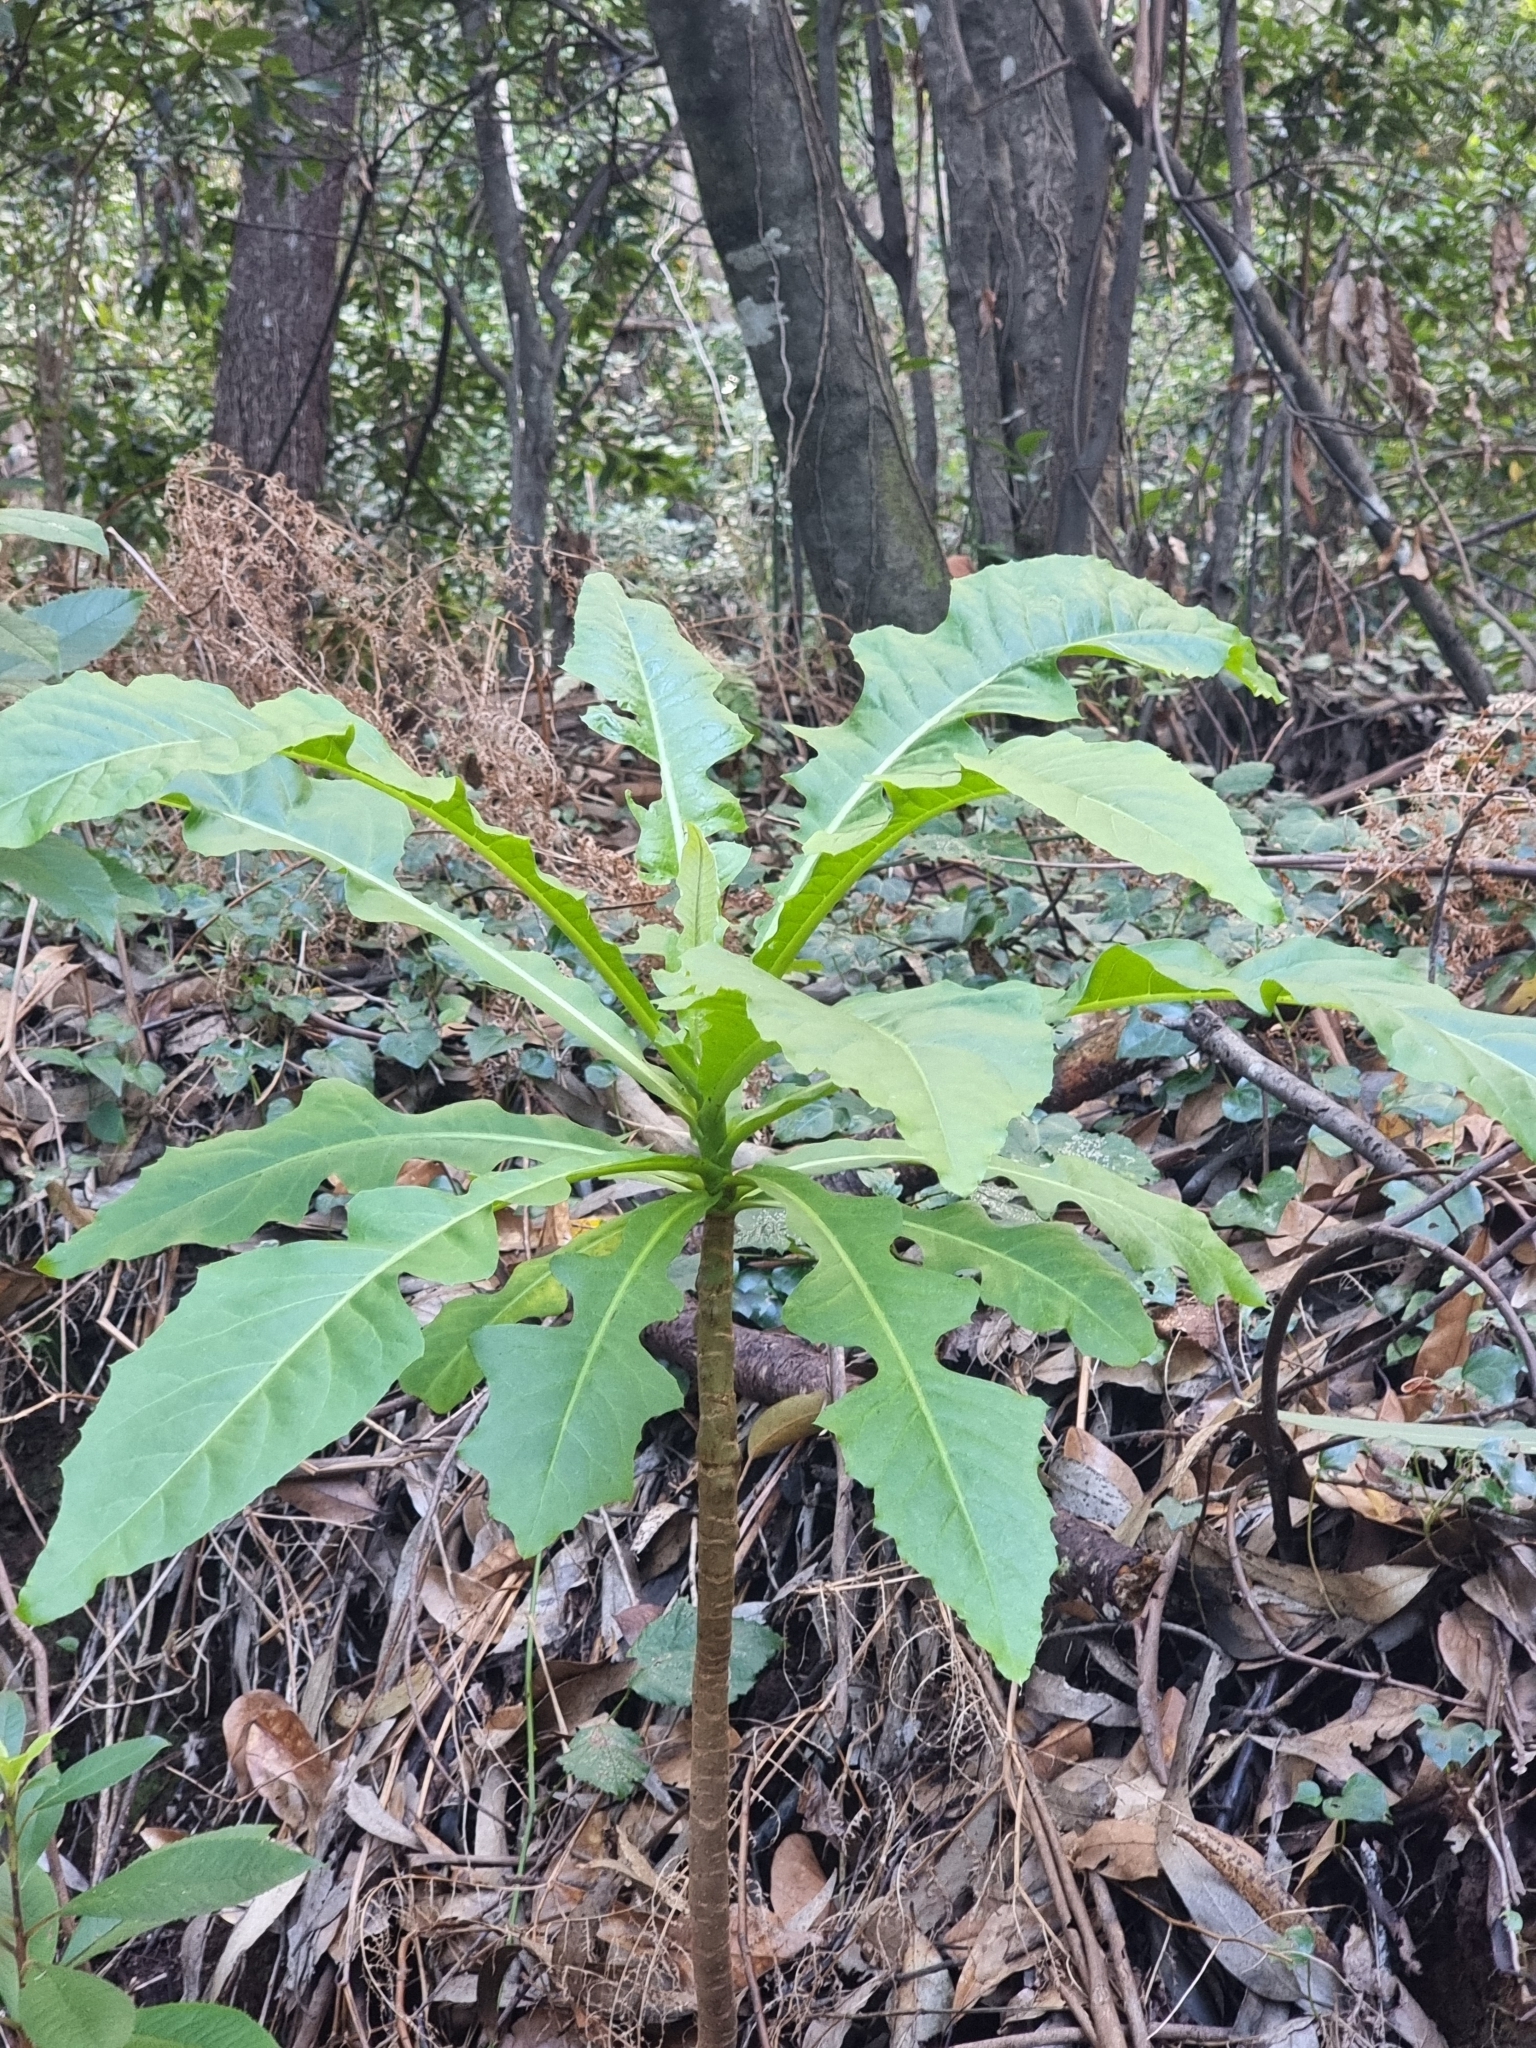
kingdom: Plantae
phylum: Tracheophyta
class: Magnoliopsida
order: Asterales
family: Asteraceae
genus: Sonchus
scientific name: Sonchus fruticosus
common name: Shrubby sow-thistle
